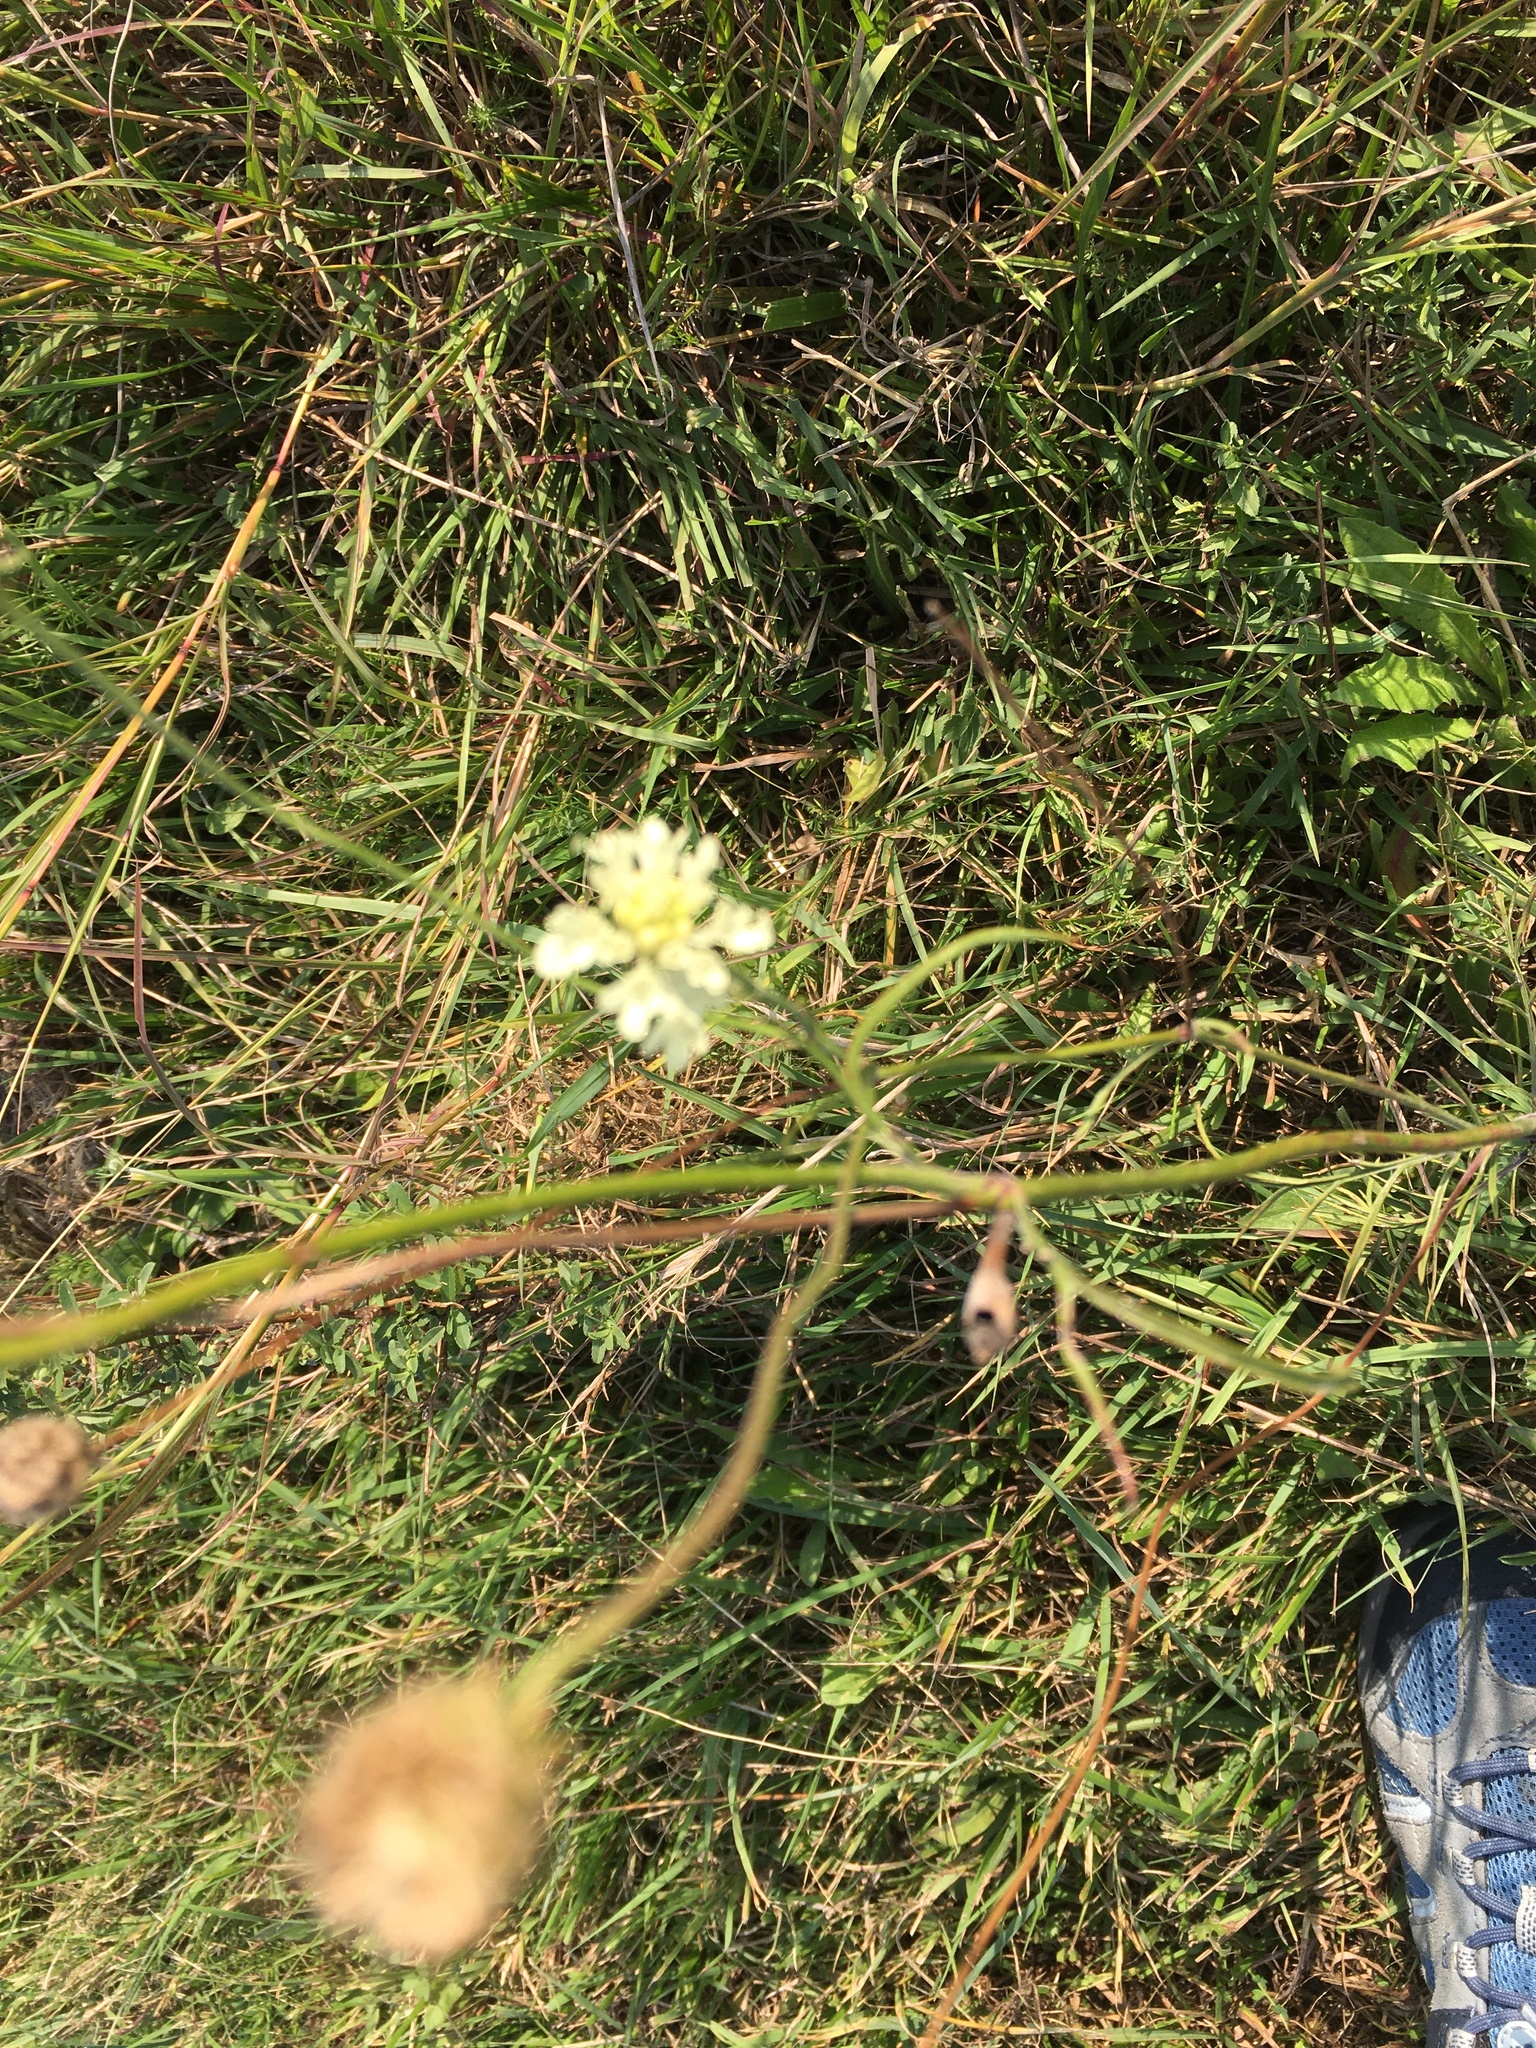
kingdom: Plantae
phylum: Tracheophyta
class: Magnoliopsida
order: Dipsacales
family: Caprifoliaceae
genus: Scabiosa
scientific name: Scabiosa ochroleuca
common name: Cream pincushions
